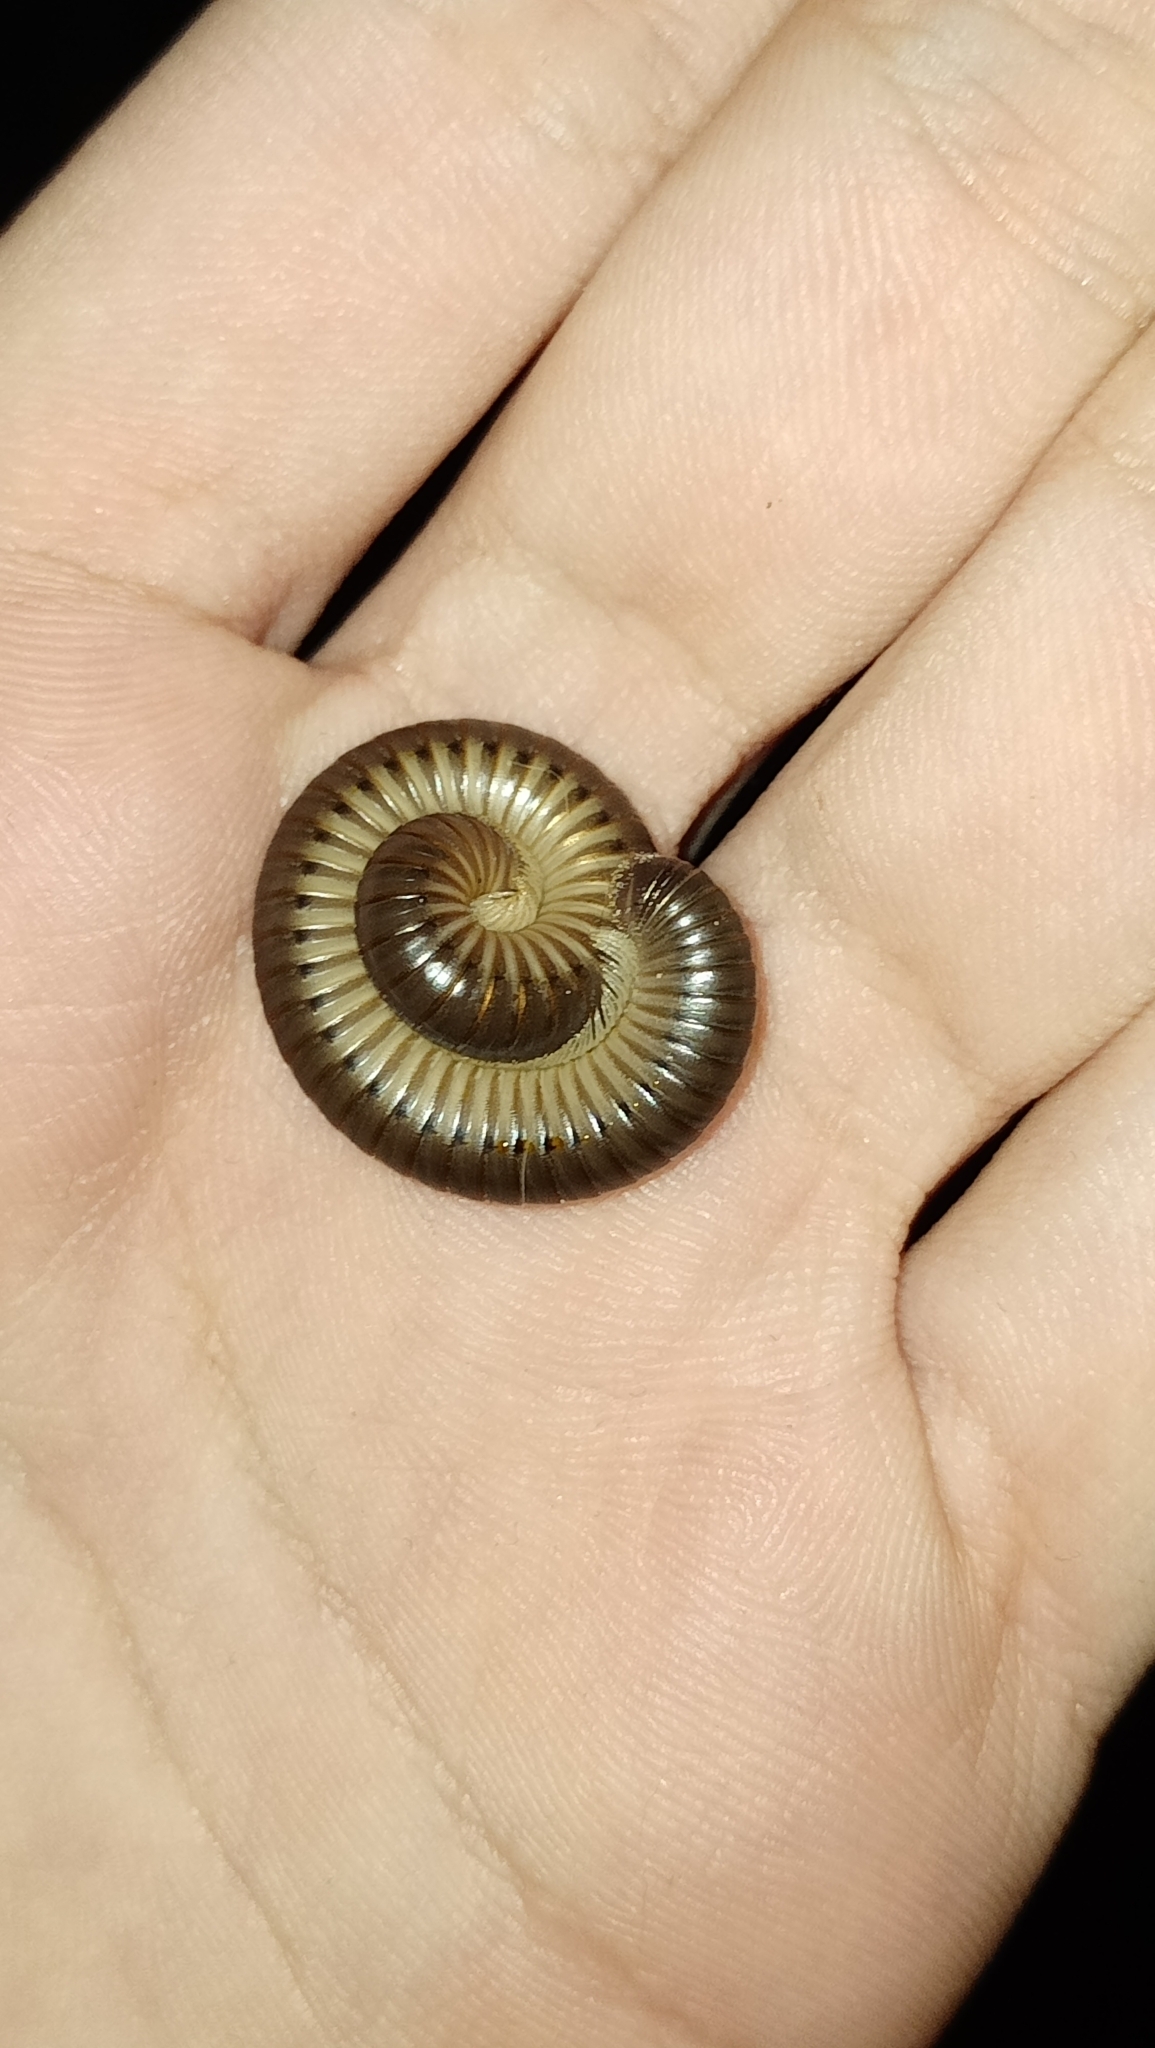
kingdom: Animalia
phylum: Arthropoda
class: Diplopoda
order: Julida
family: Julidae
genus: Pachyiulus
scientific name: Pachyiulus flavipes
